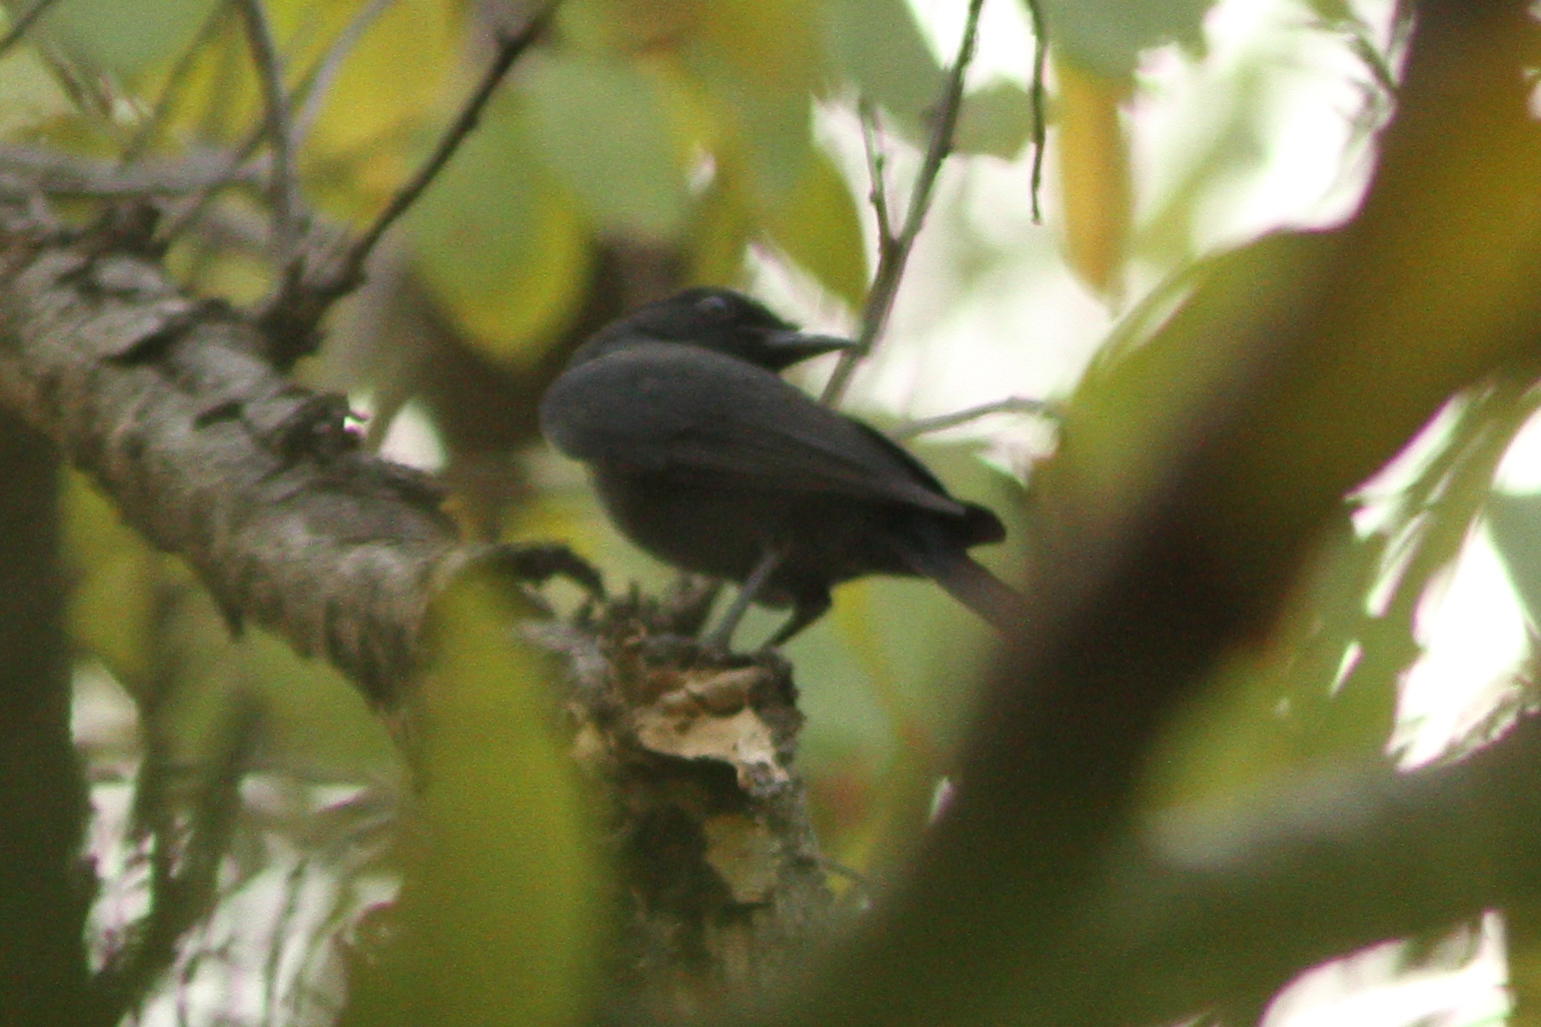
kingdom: Animalia
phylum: Chordata
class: Aves
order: Passeriformes
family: Muscicapidae
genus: Melaenornis
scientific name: Melaenornis edolioides
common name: Northern black flycatcher
